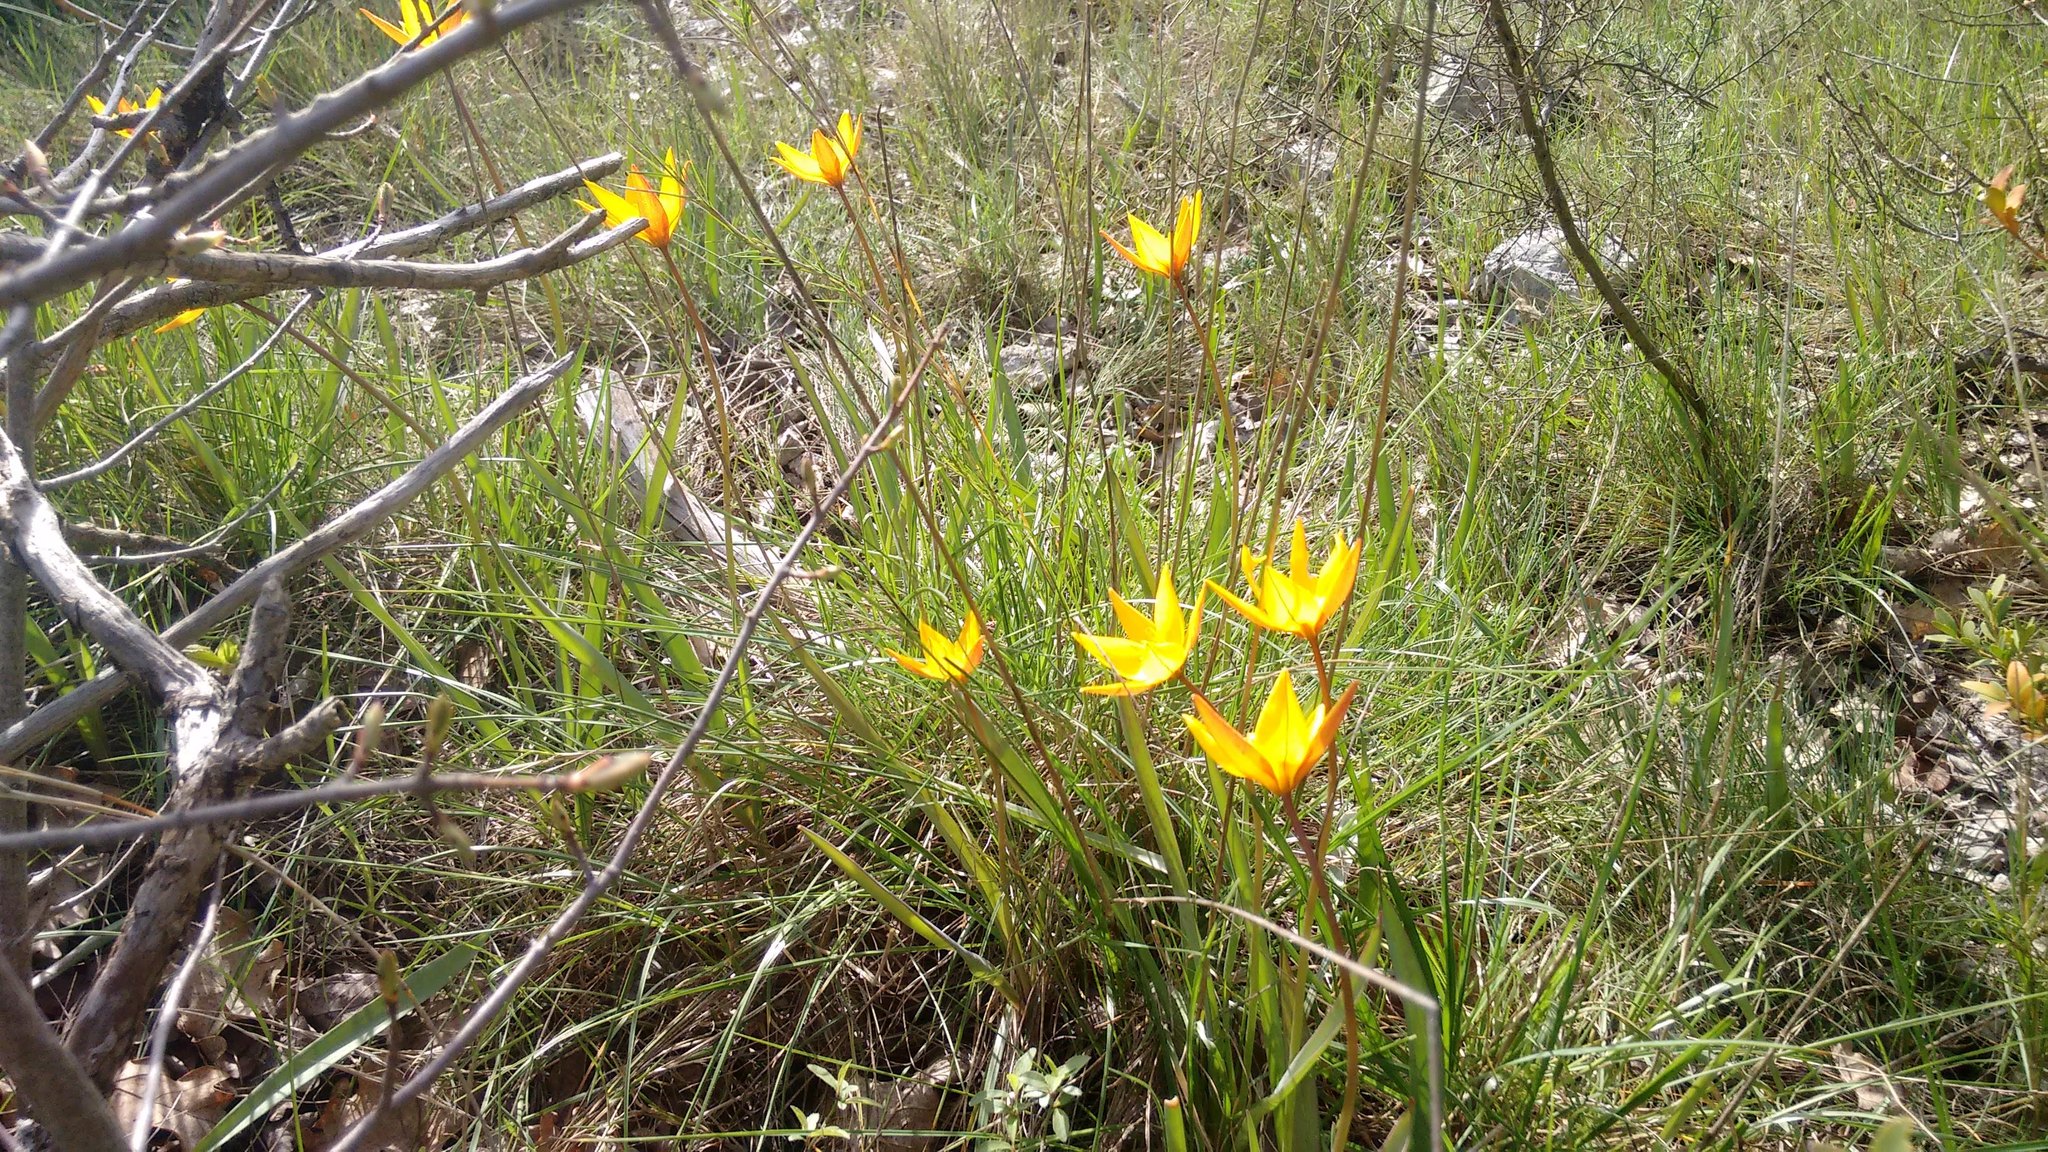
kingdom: Plantae
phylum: Tracheophyta
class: Liliopsida
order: Liliales
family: Liliaceae
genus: Tulipa
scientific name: Tulipa sylvestris
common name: Wild tulip
